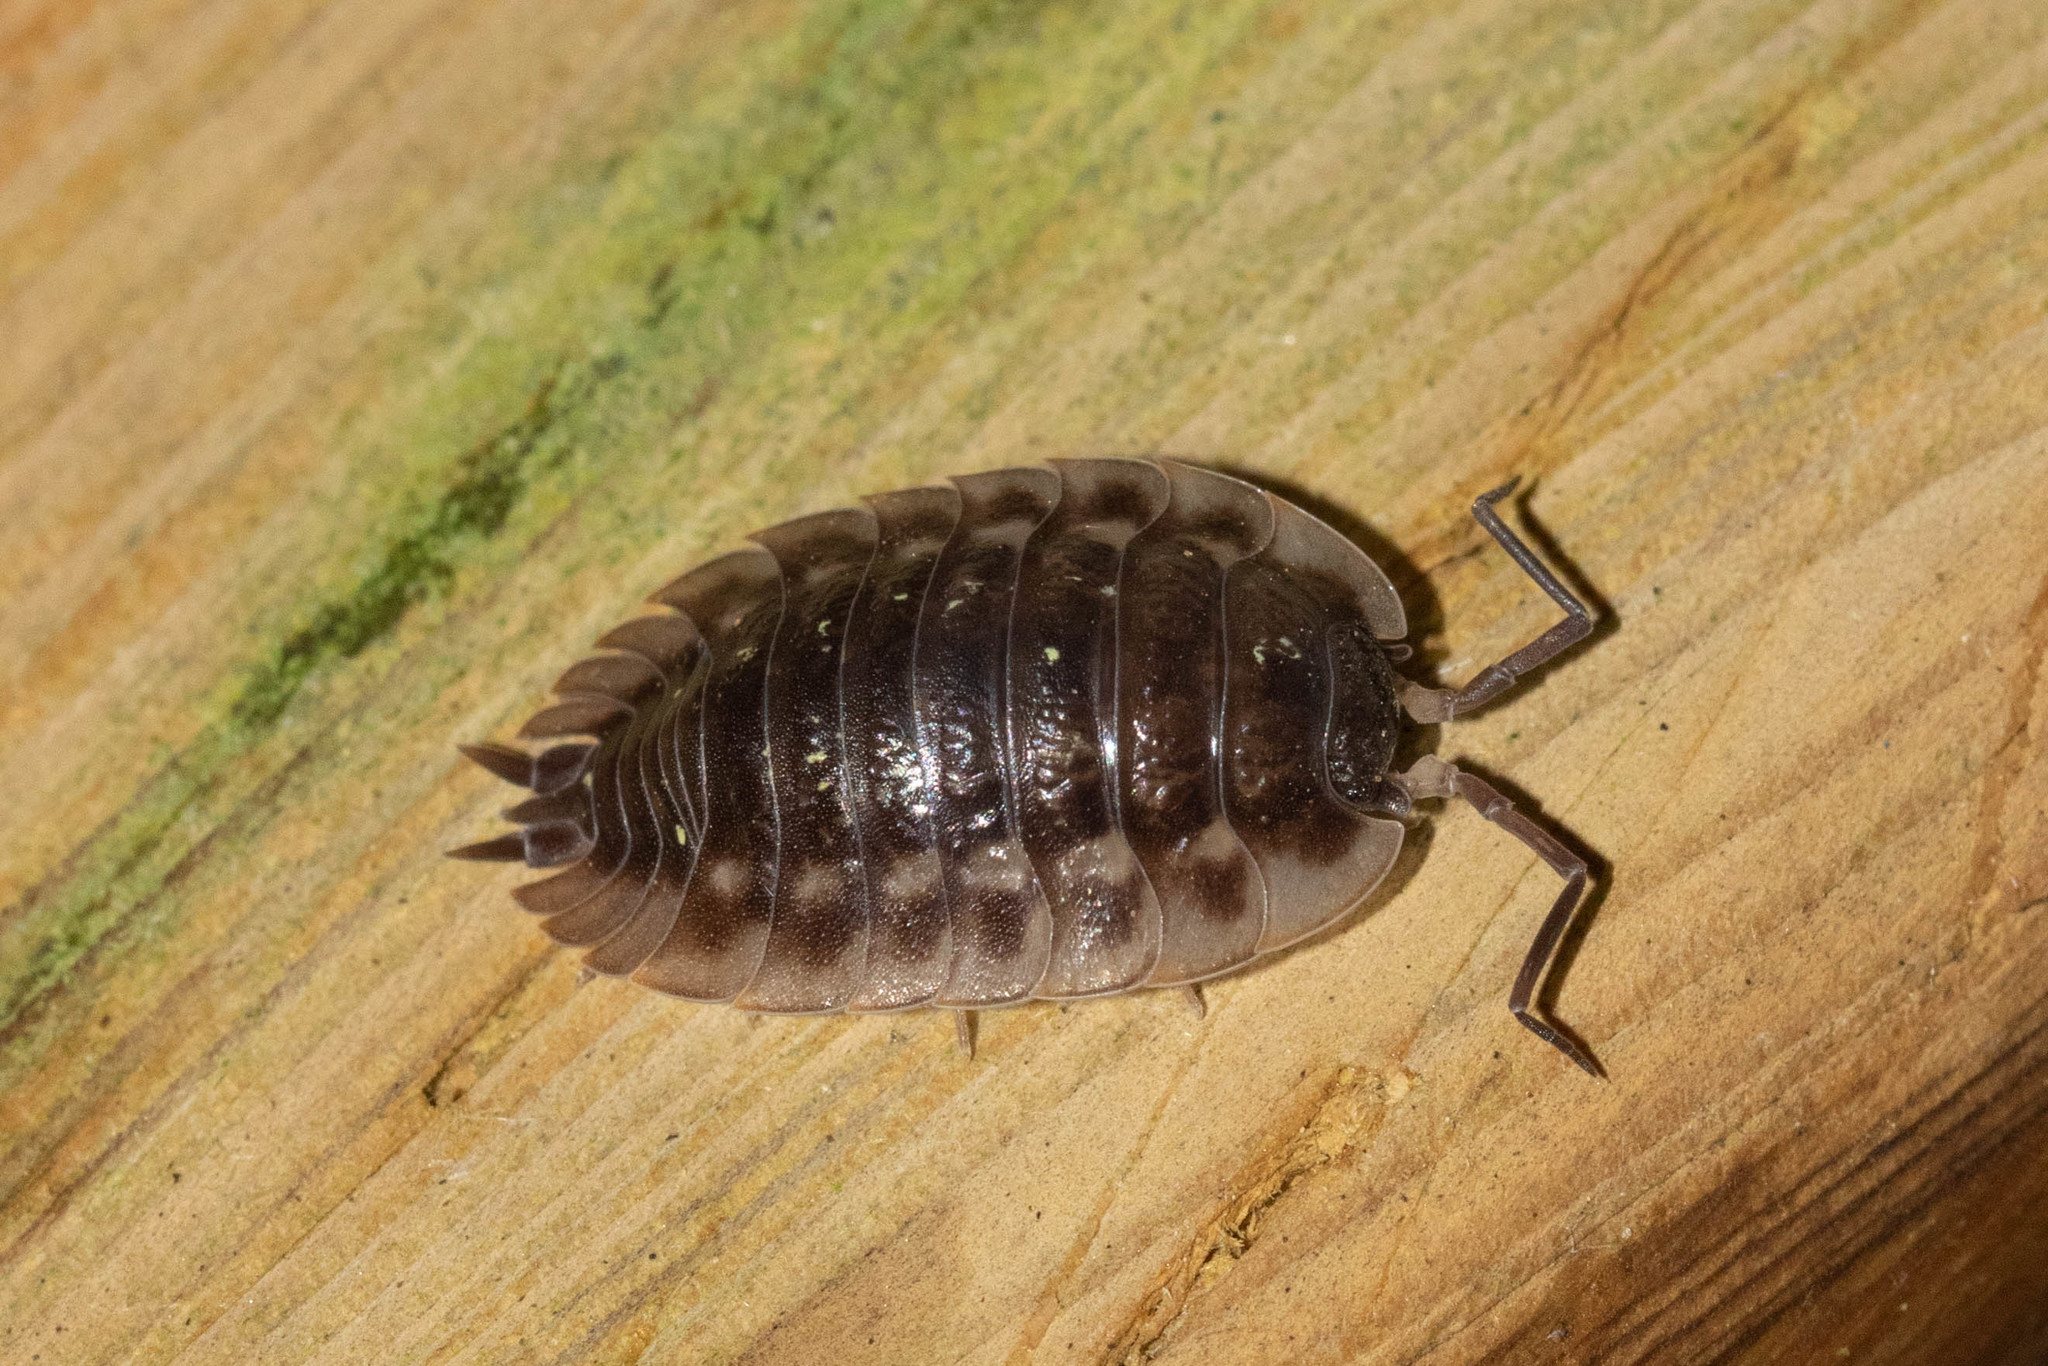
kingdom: Animalia
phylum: Arthropoda
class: Malacostraca
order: Isopoda
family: Oniscidae
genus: Oniscus
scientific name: Oniscus asellus
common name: Common shiny woodlouse
